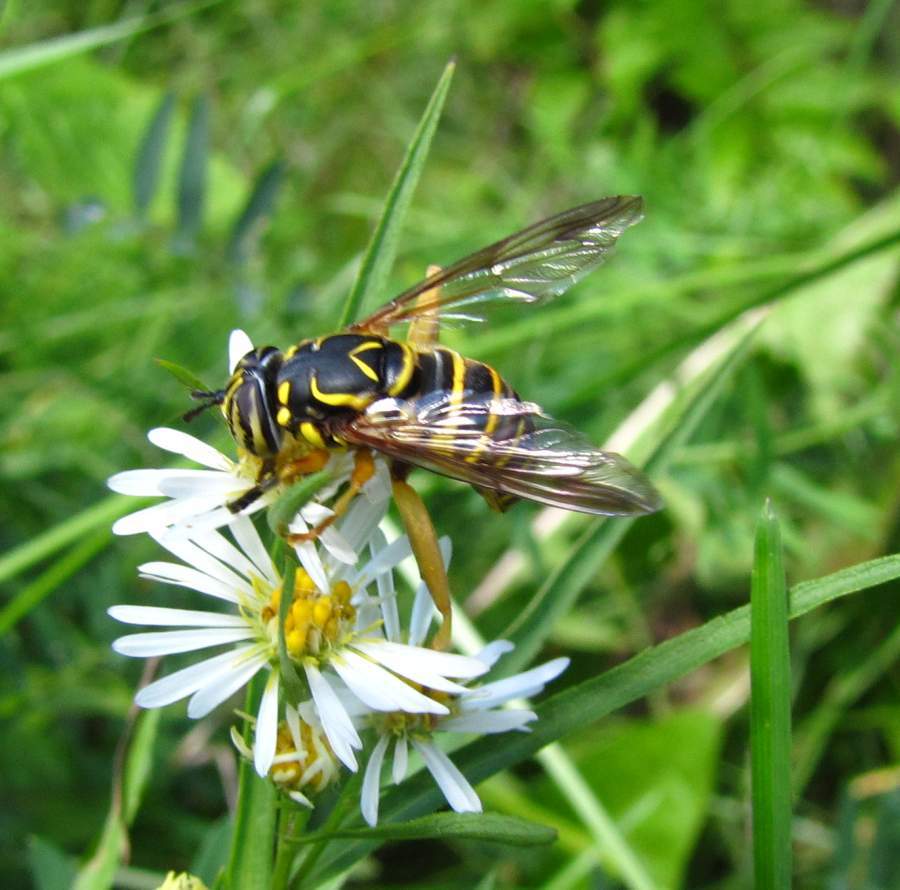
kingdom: Animalia
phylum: Arthropoda
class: Insecta
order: Diptera
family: Syrphidae
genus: Spilomyia
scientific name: Spilomyia longicornis
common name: Eastern hornet fly
